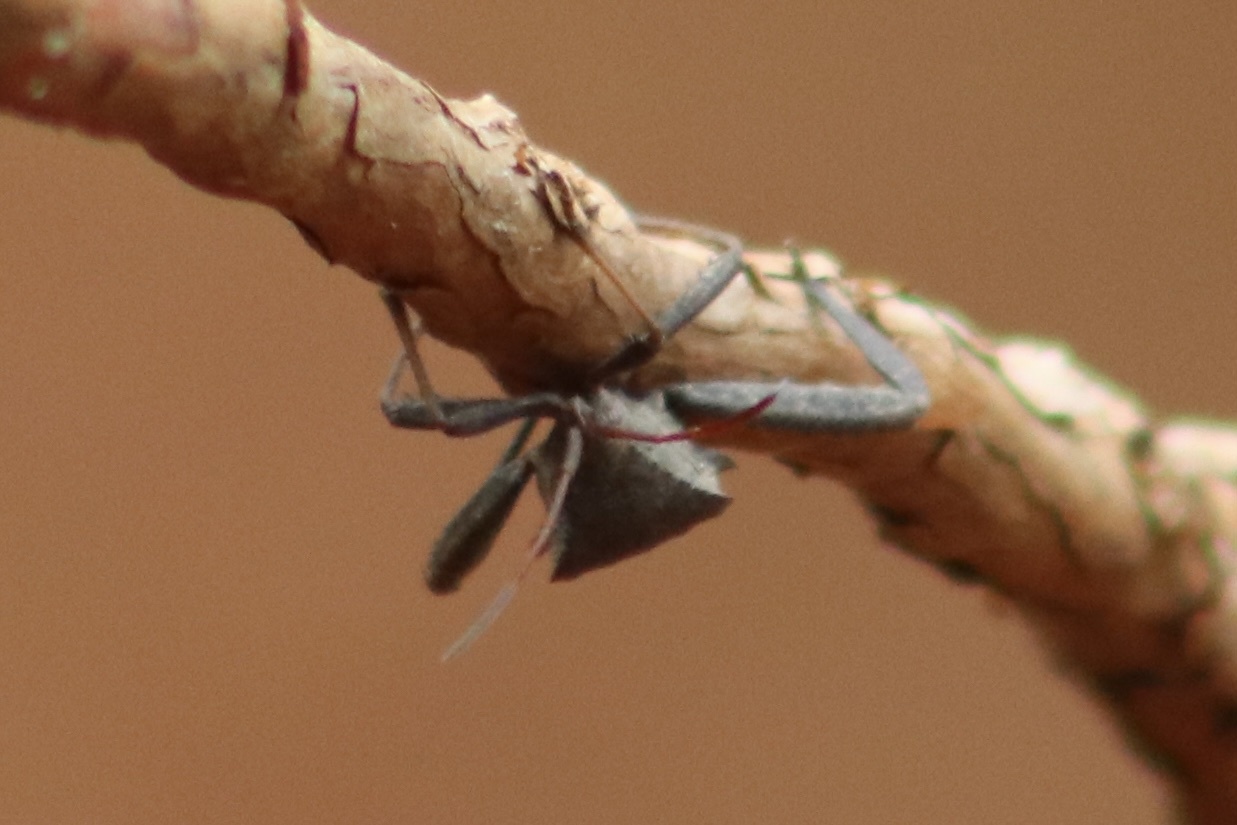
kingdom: Animalia
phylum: Arthropoda
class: Insecta
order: Hemiptera
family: Coreidae
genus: Acanthocephala
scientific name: Acanthocephala terminalis
